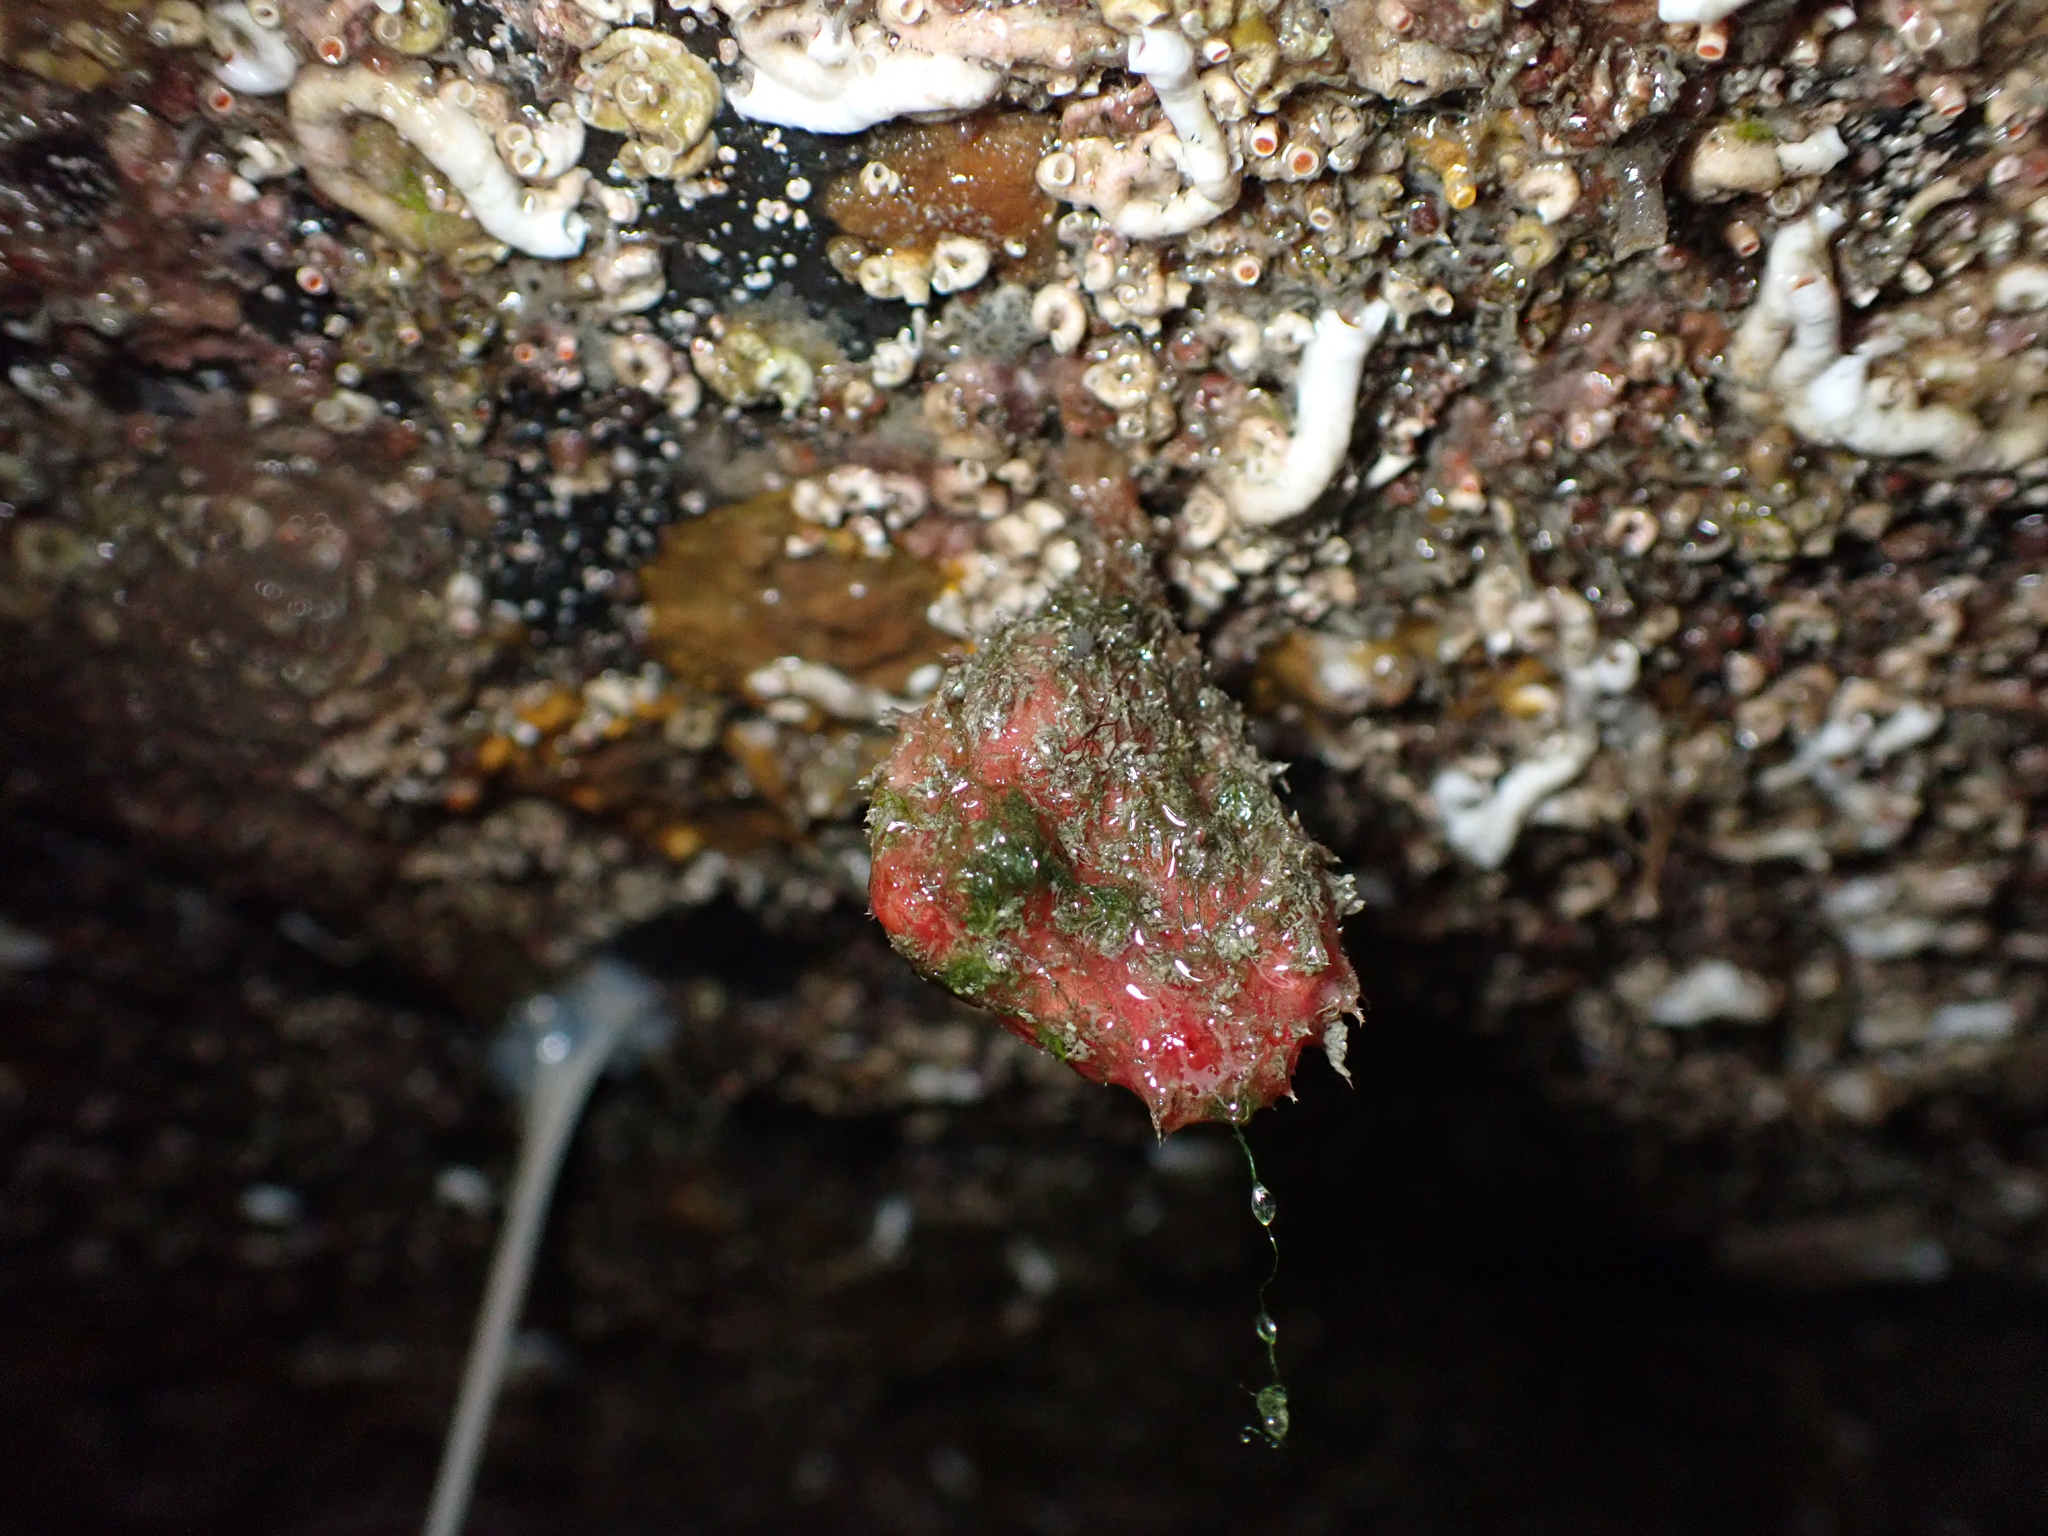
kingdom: Animalia
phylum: Chordata
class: Ascidiacea
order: Stolidobranchia
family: Pyuridae
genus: Boltenia
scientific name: Boltenia villosa
